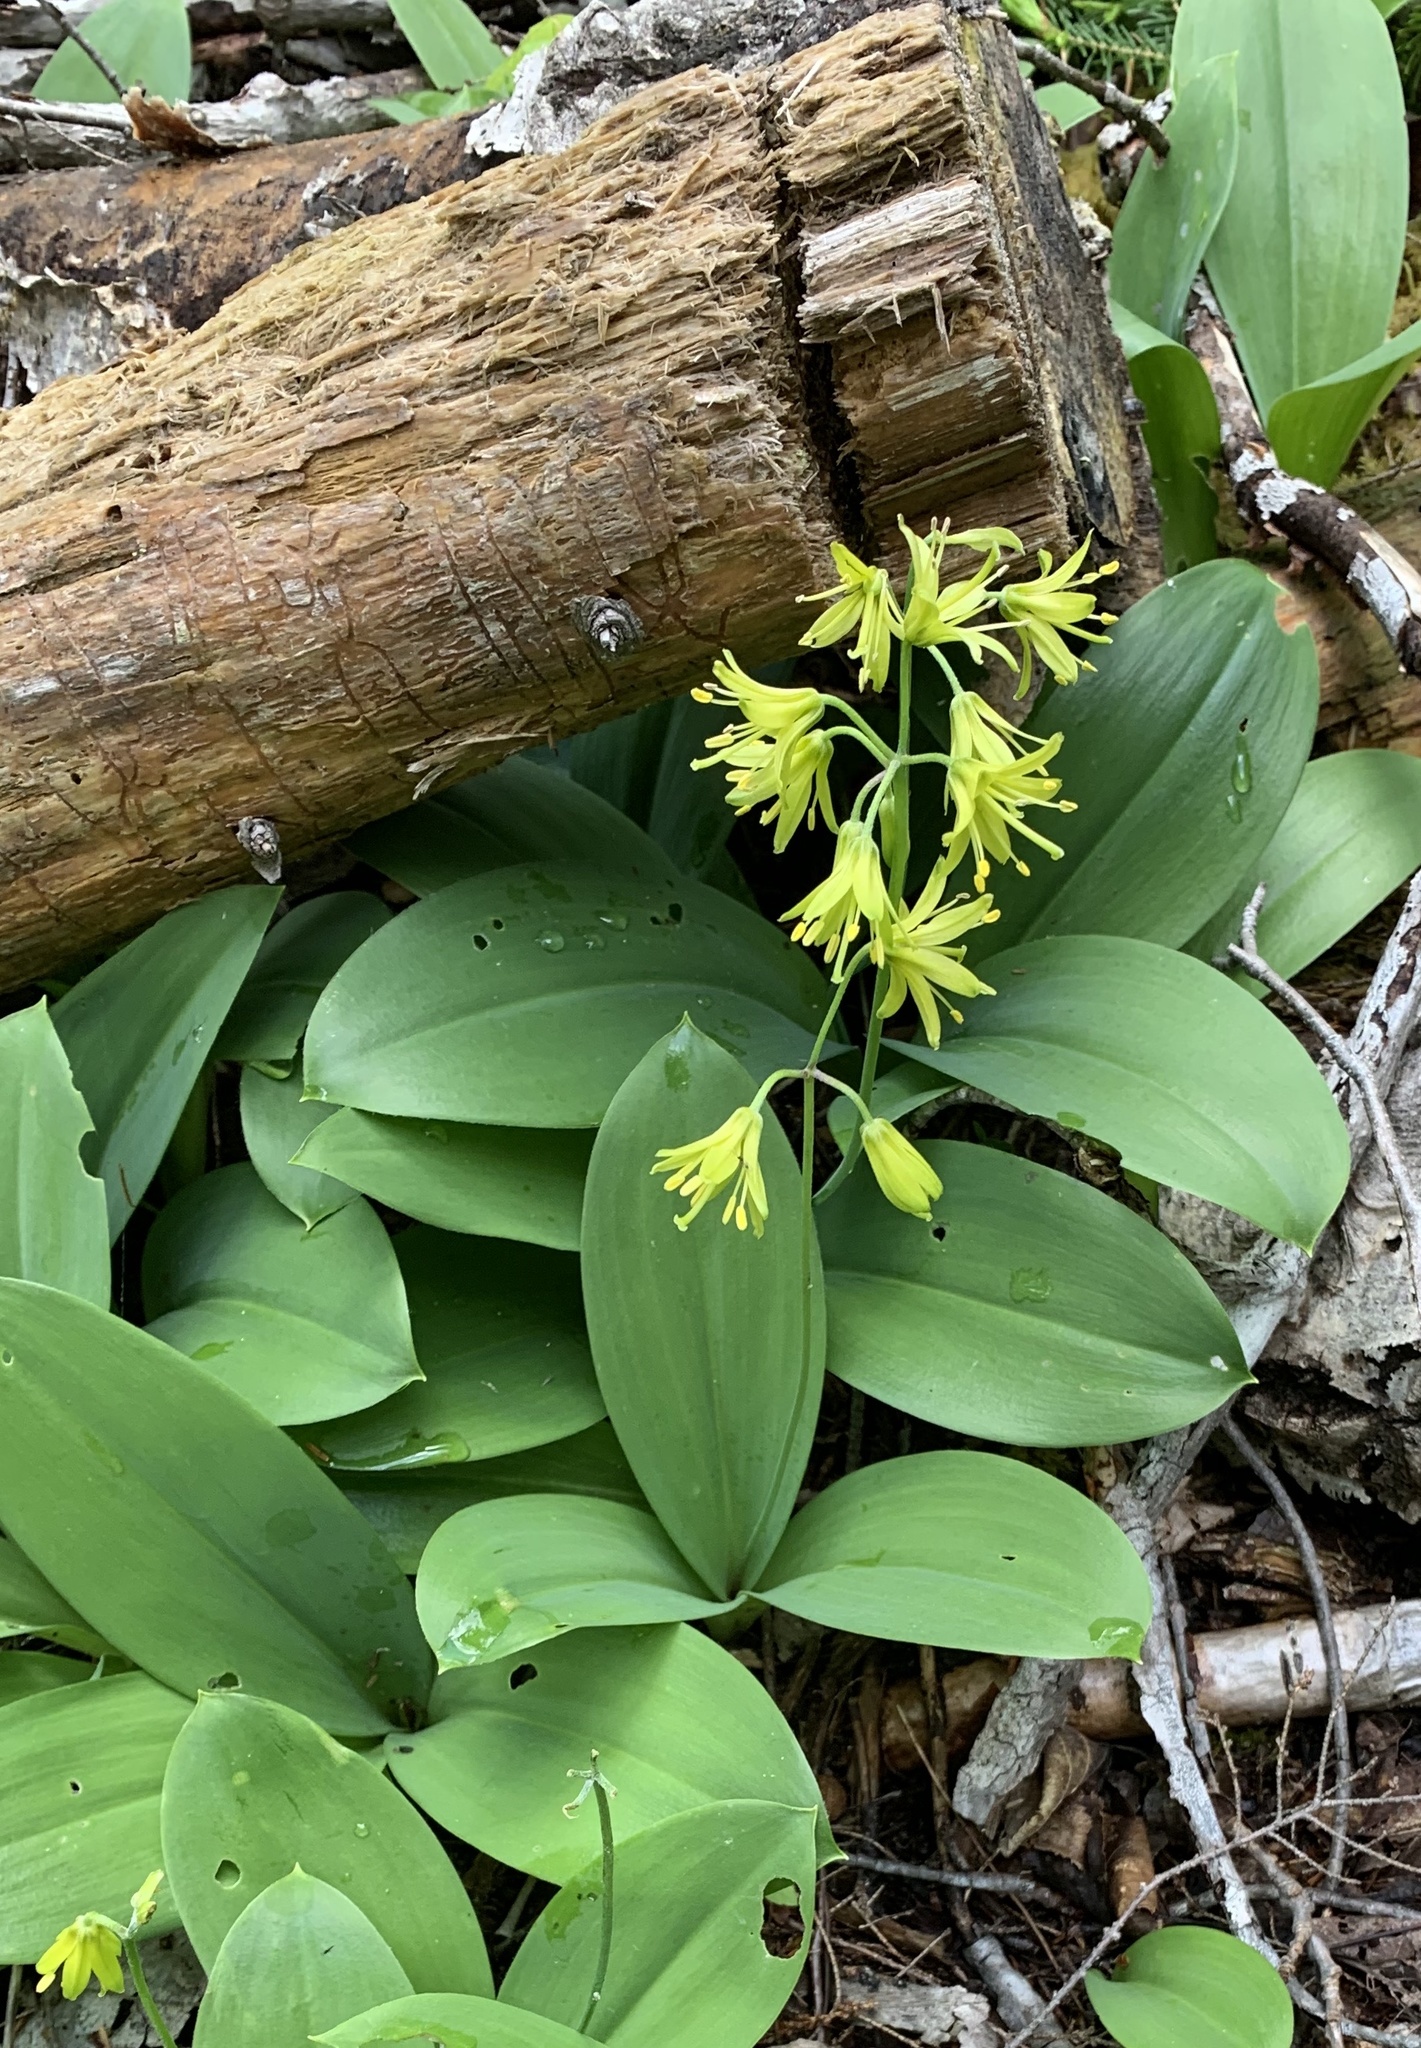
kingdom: Plantae
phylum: Tracheophyta
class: Liliopsida
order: Liliales
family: Liliaceae
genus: Clintonia
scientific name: Clintonia borealis
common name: Yellow clintonia
